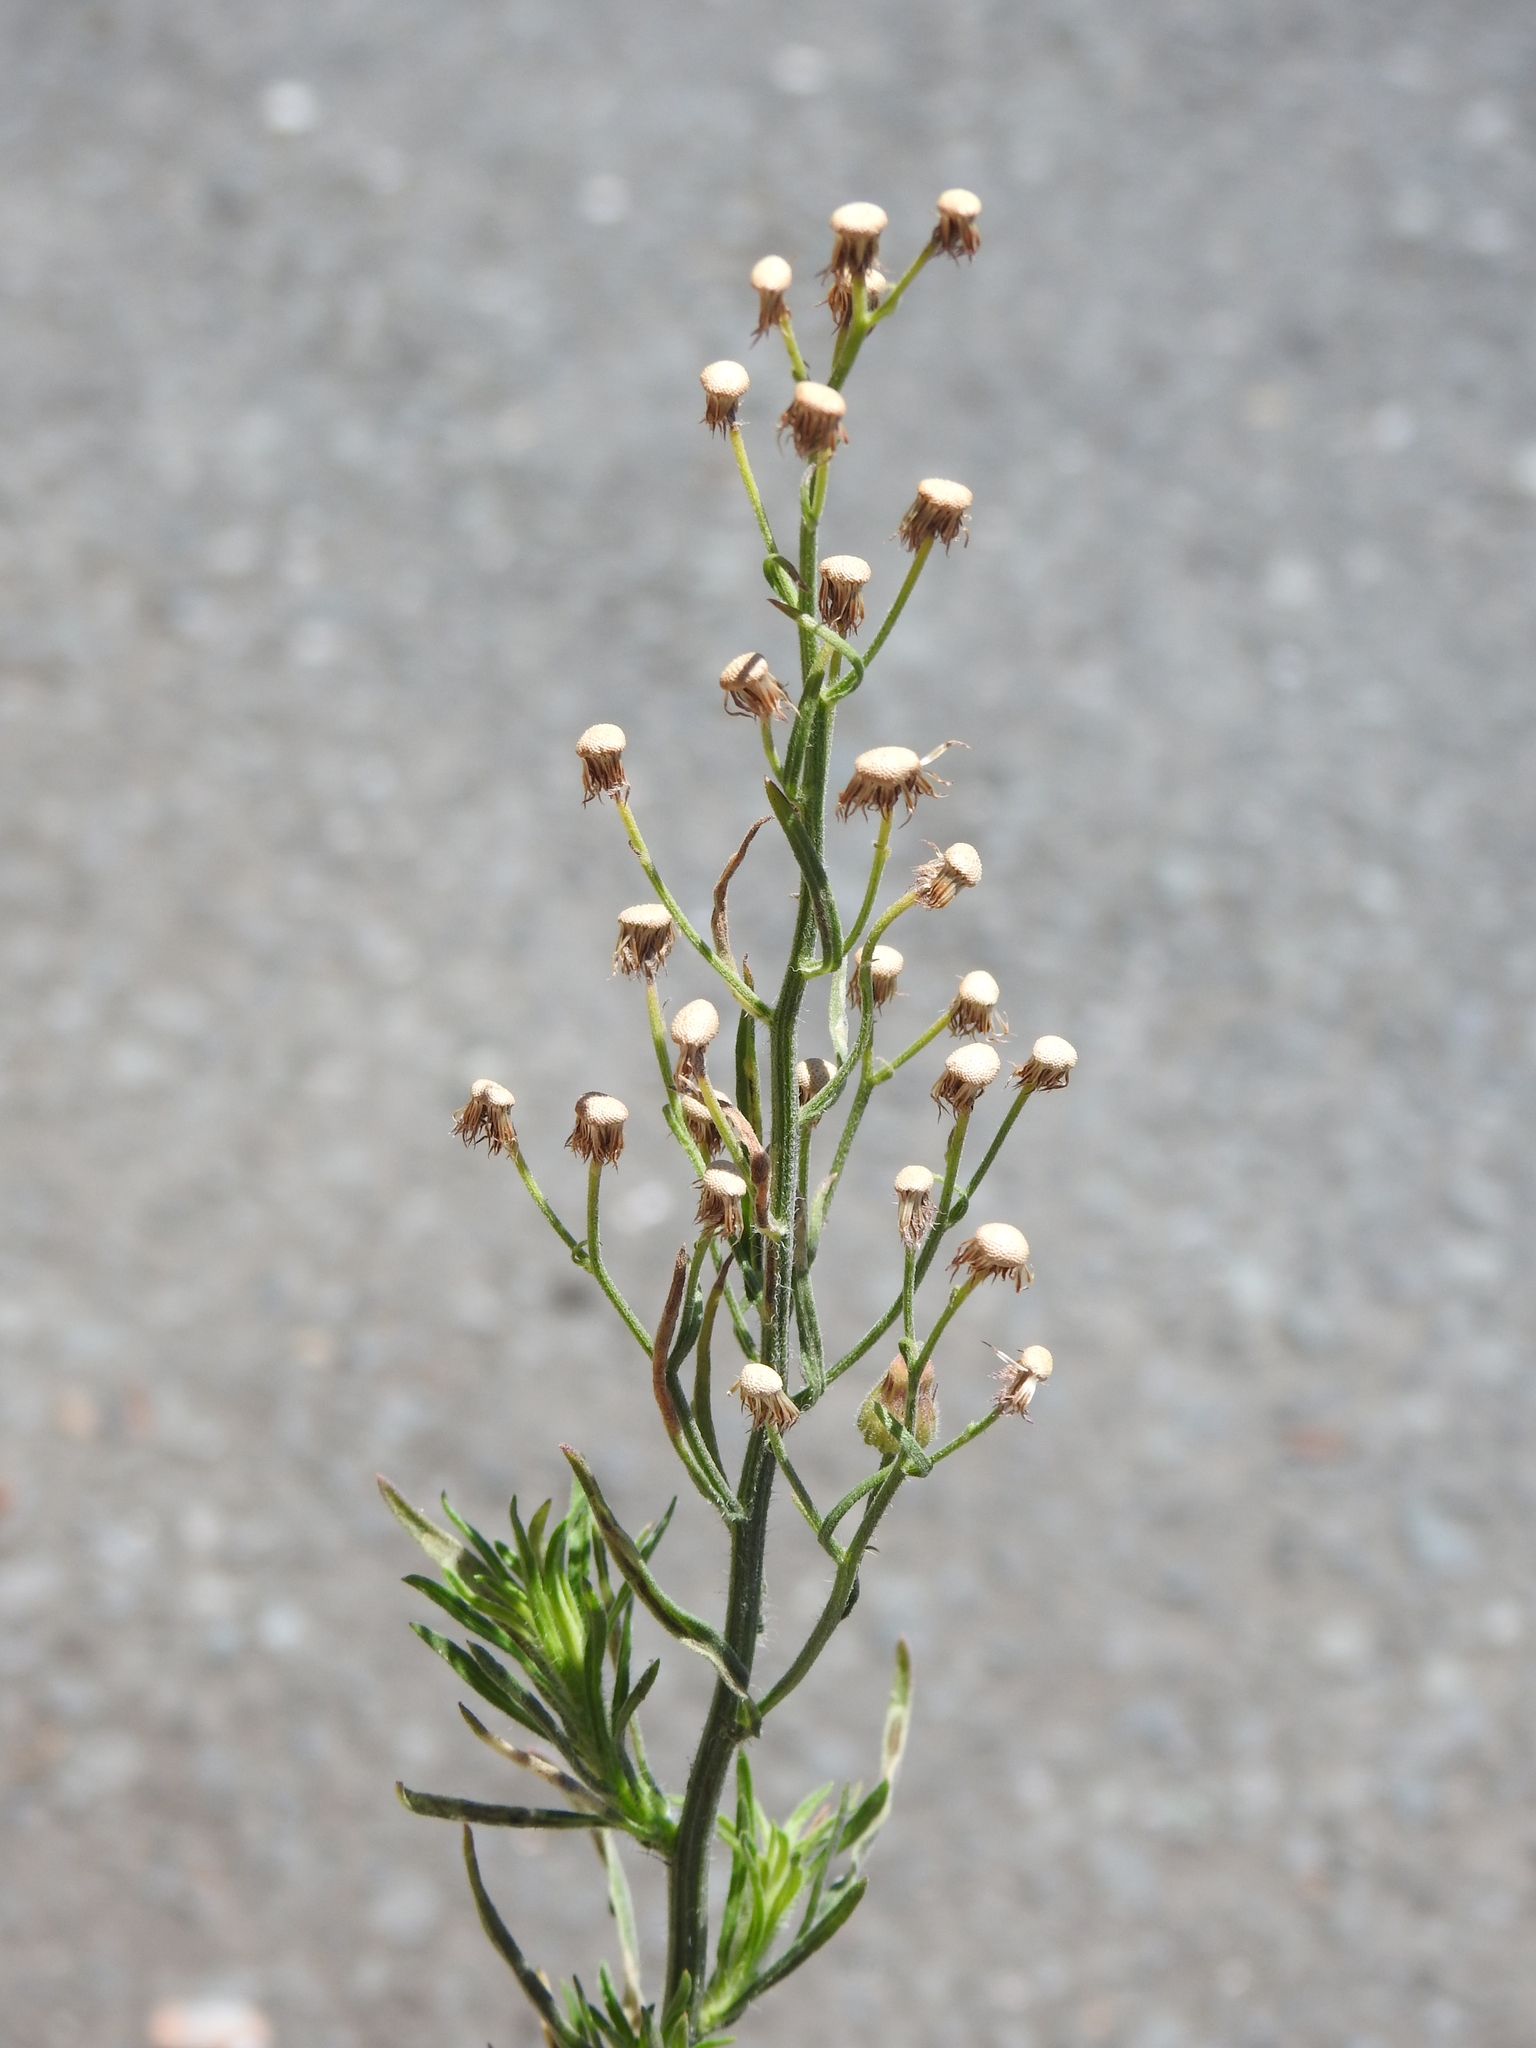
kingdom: Plantae
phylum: Tracheophyta
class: Magnoliopsida
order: Asterales
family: Asteraceae
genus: Erigeron
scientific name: Erigeron bonariensis
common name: Argentine fleabane
